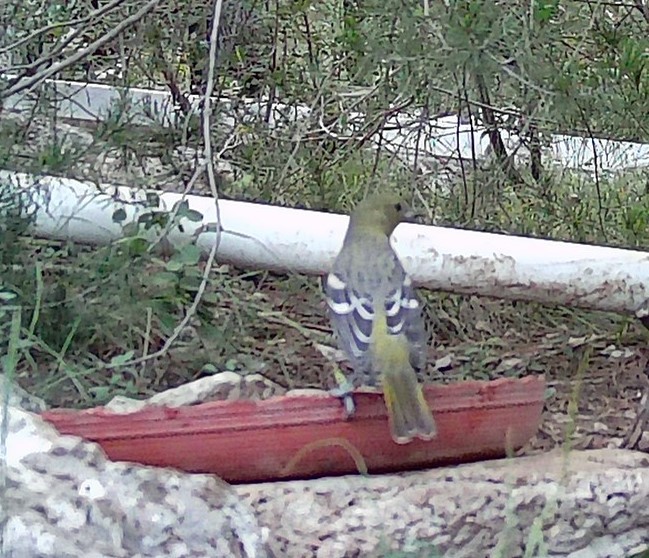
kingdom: Animalia
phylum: Chordata
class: Aves
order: Passeriformes
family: Icteridae
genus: Icterus
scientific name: Icterus parisorum
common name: Scott's oriole
